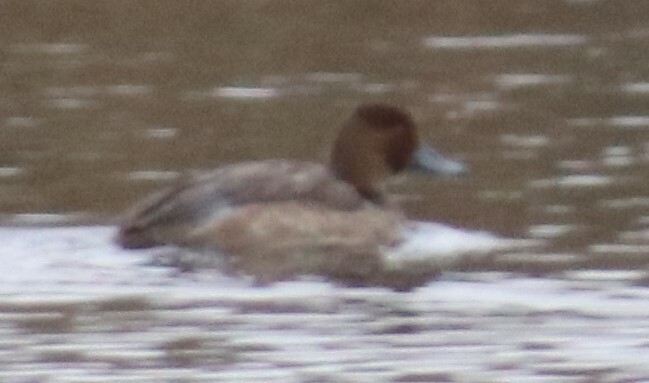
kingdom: Animalia
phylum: Chordata
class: Aves
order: Anseriformes
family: Anatidae
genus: Aythya
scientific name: Aythya americana
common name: Redhead
